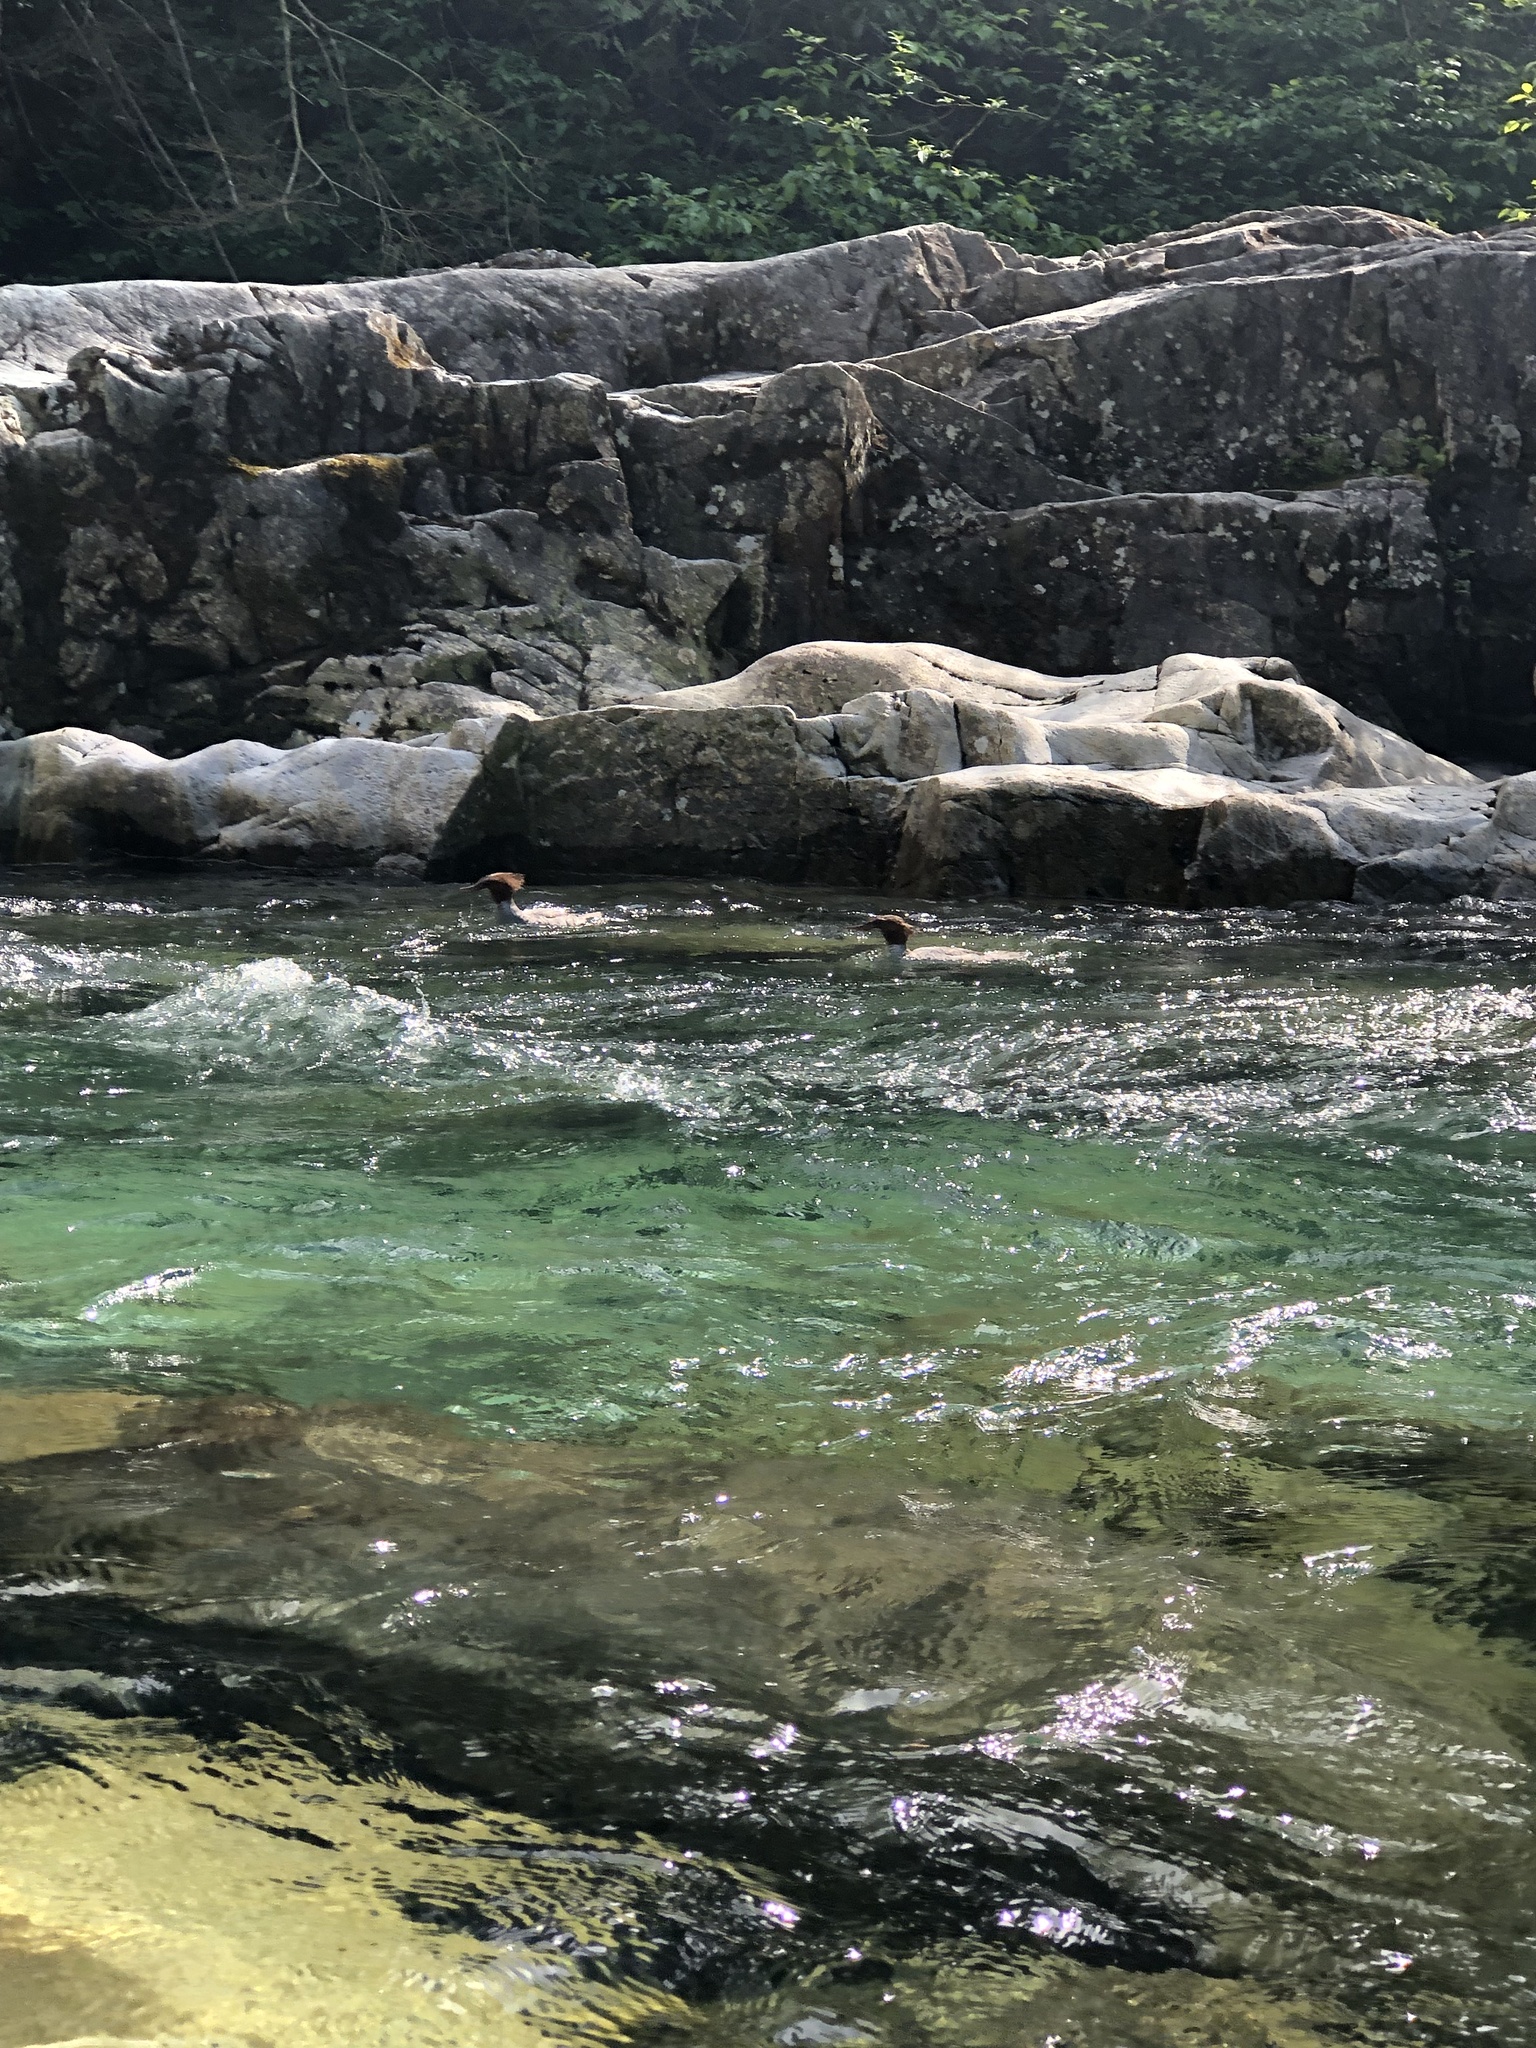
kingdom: Animalia
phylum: Chordata
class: Aves
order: Anseriformes
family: Anatidae
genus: Mergus
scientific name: Mergus merganser
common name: Common merganser
